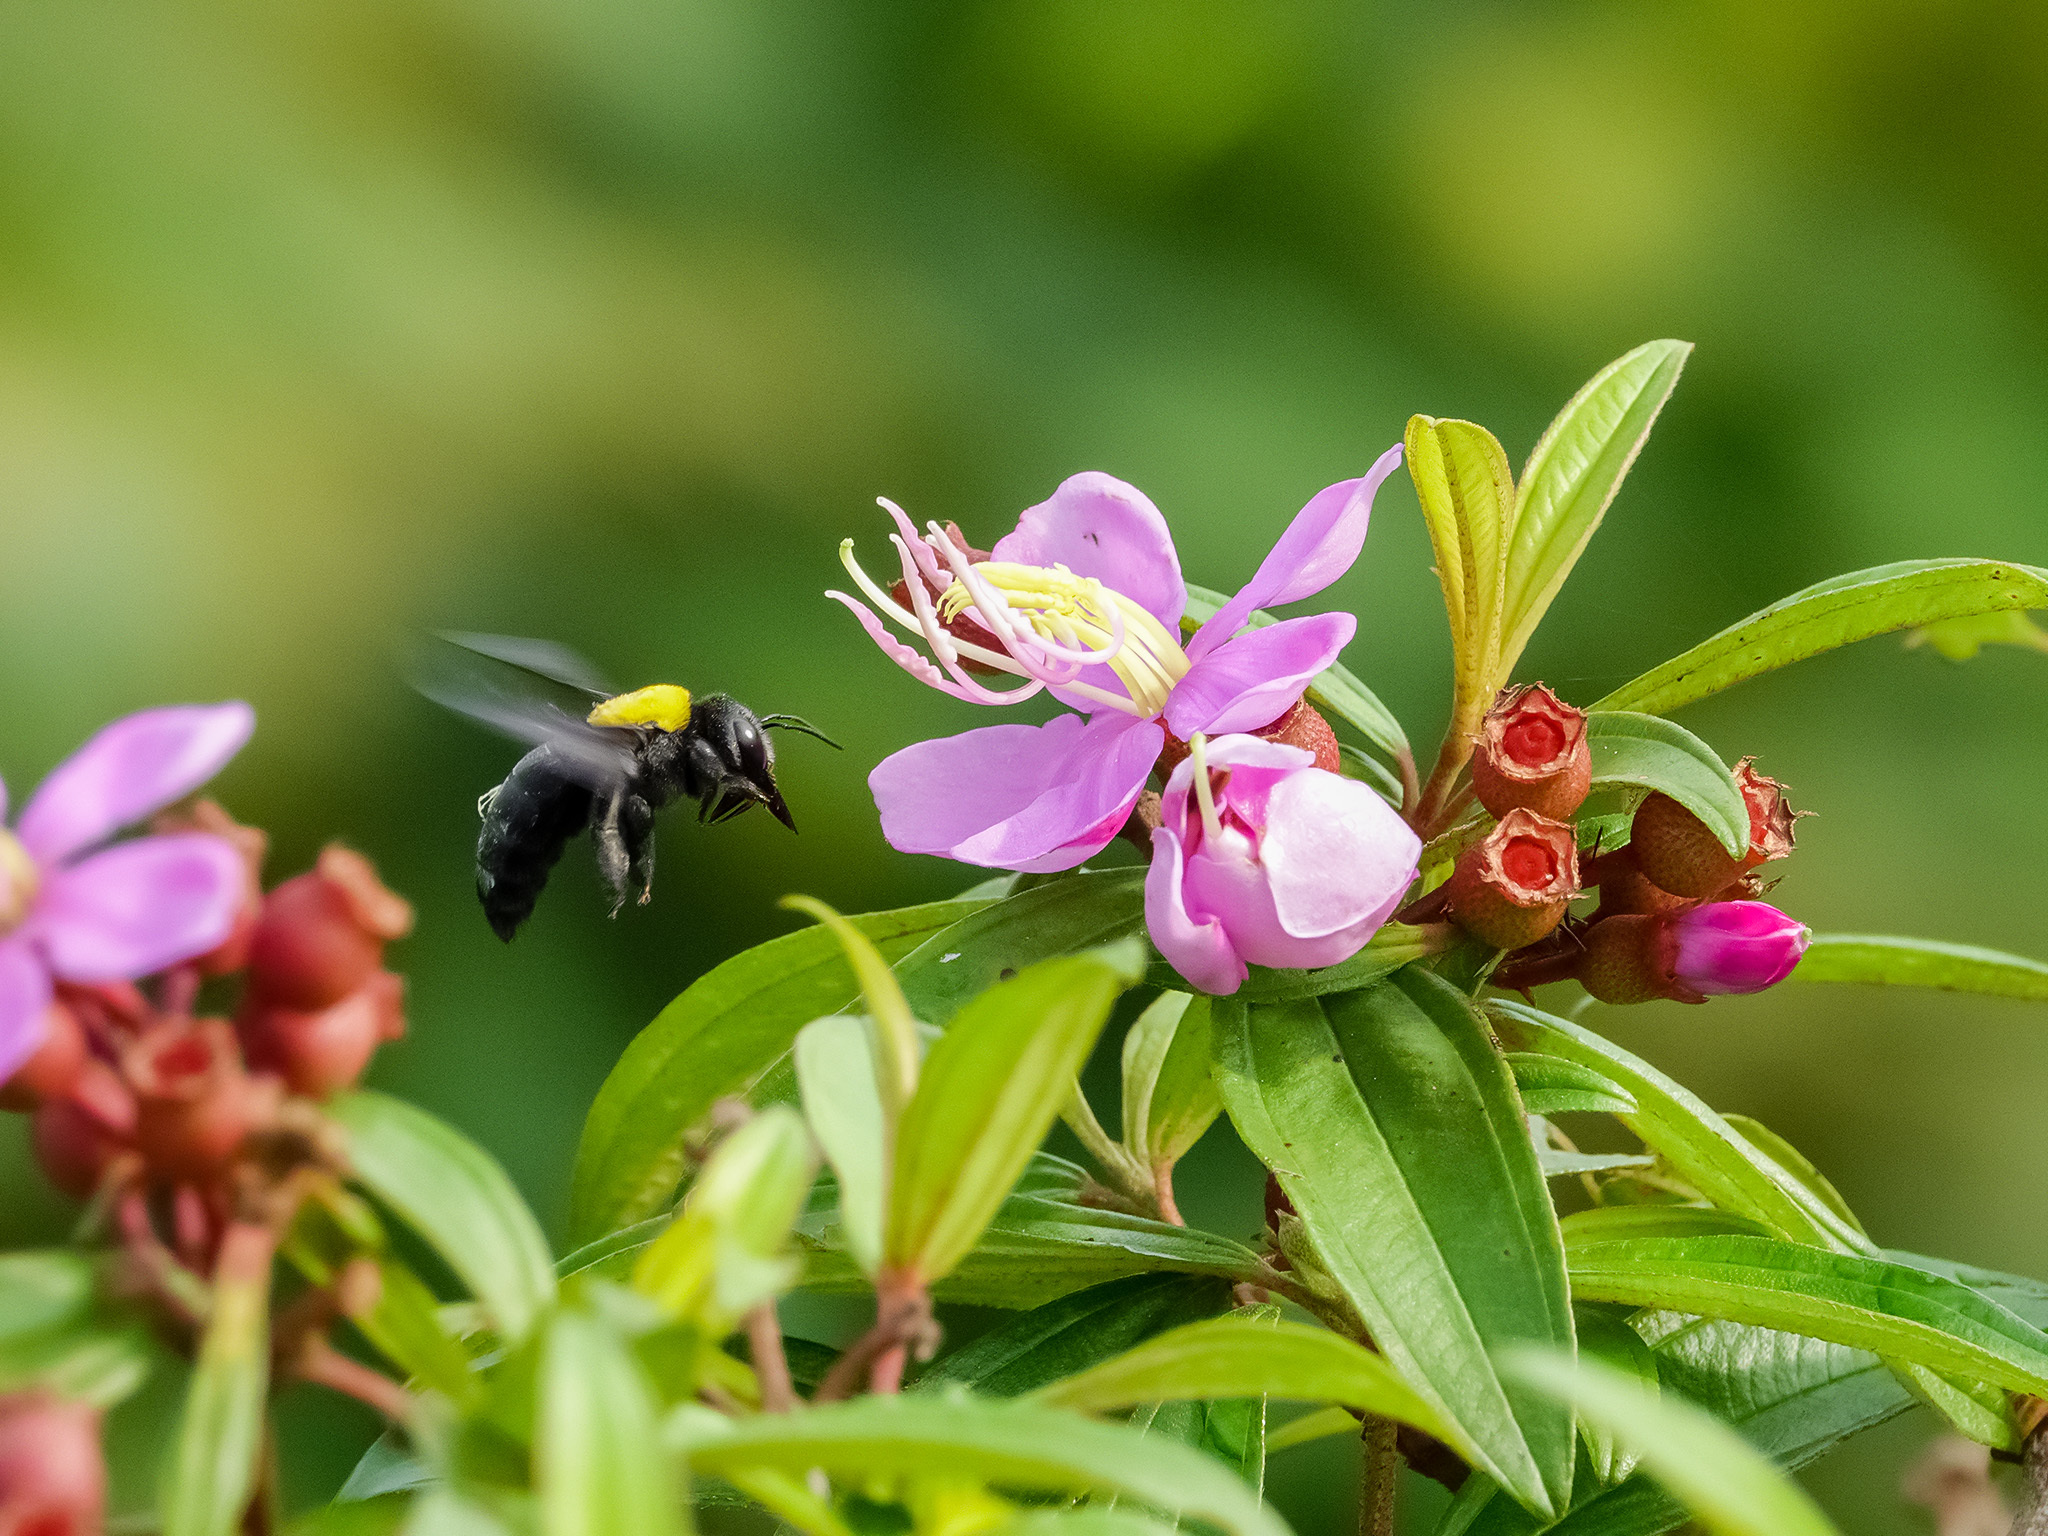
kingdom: Animalia
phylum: Arthropoda
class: Insecta
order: Hymenoptera
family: Apidae
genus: Xylocopa
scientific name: Xylocopa aestuans
